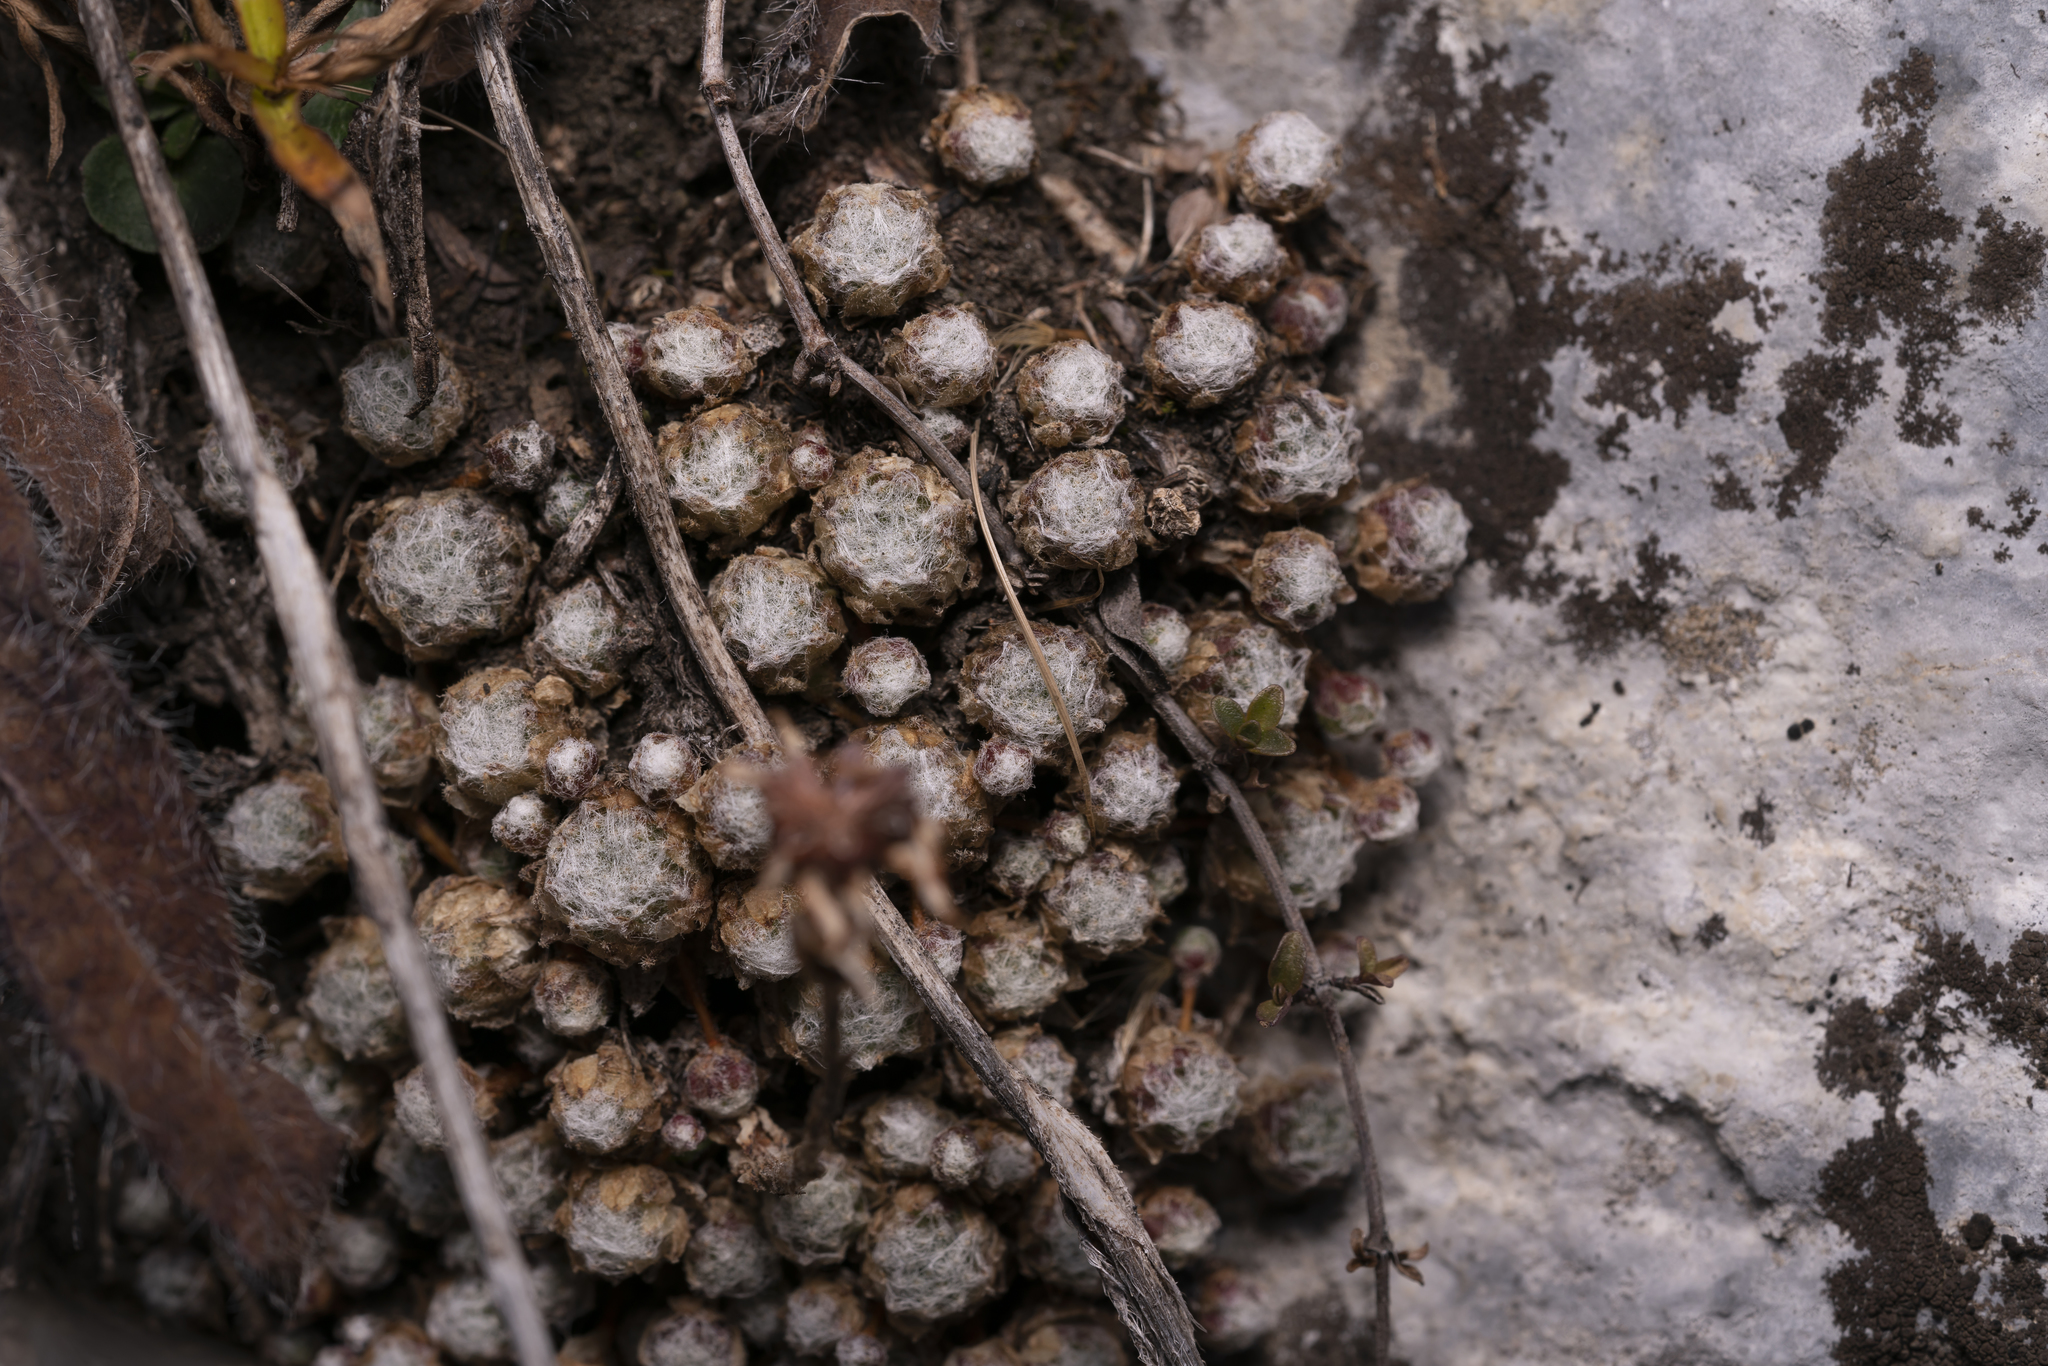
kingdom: Plantae
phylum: Tracheophyta
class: Magnoliopsida
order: Saxifragales
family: Crassulaceae
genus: Sempervivum
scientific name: Sempervivum arachnoideum
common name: Cobweb house-leek
